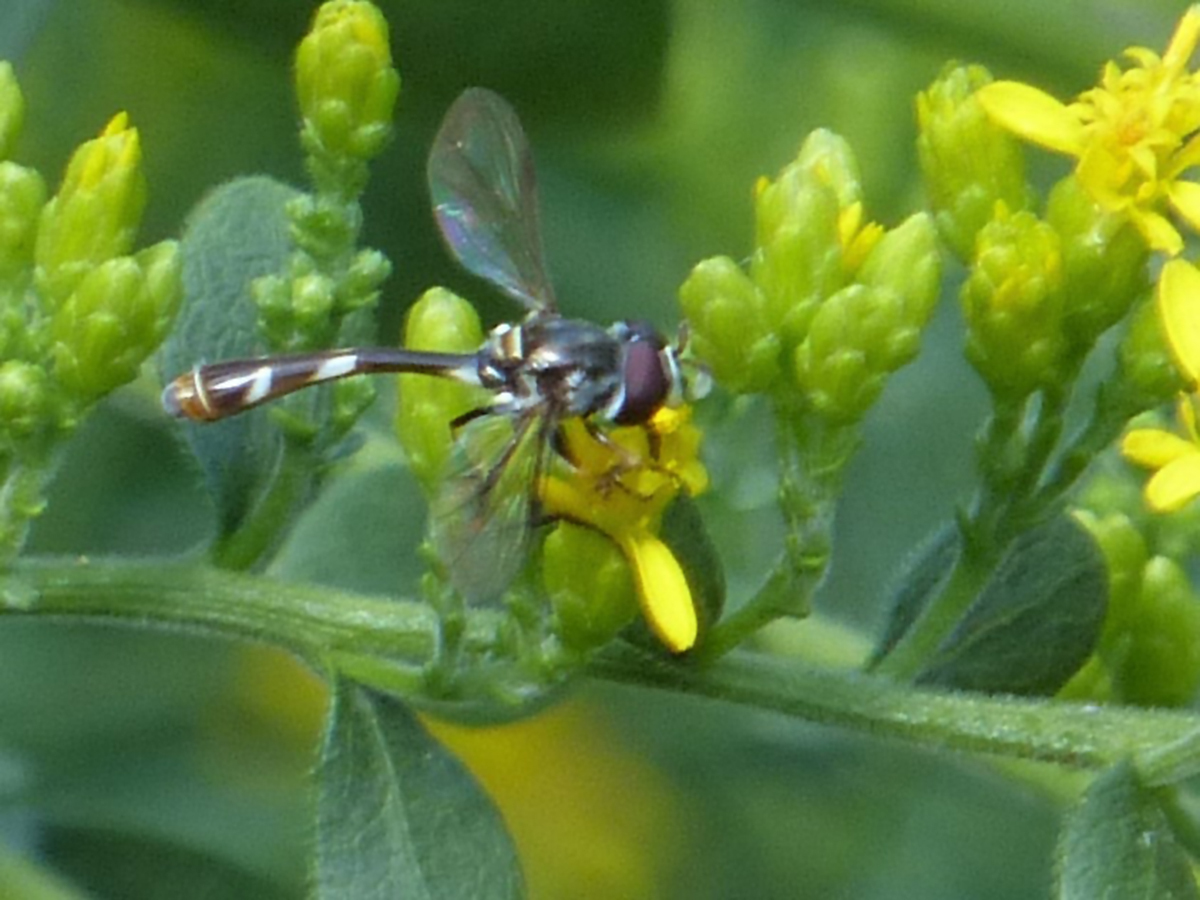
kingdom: Animalia
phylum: Arthropoda
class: Insecta
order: Diptera
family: Syrphidae
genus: Dioprosopa
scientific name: Dioprosopa clavatus
